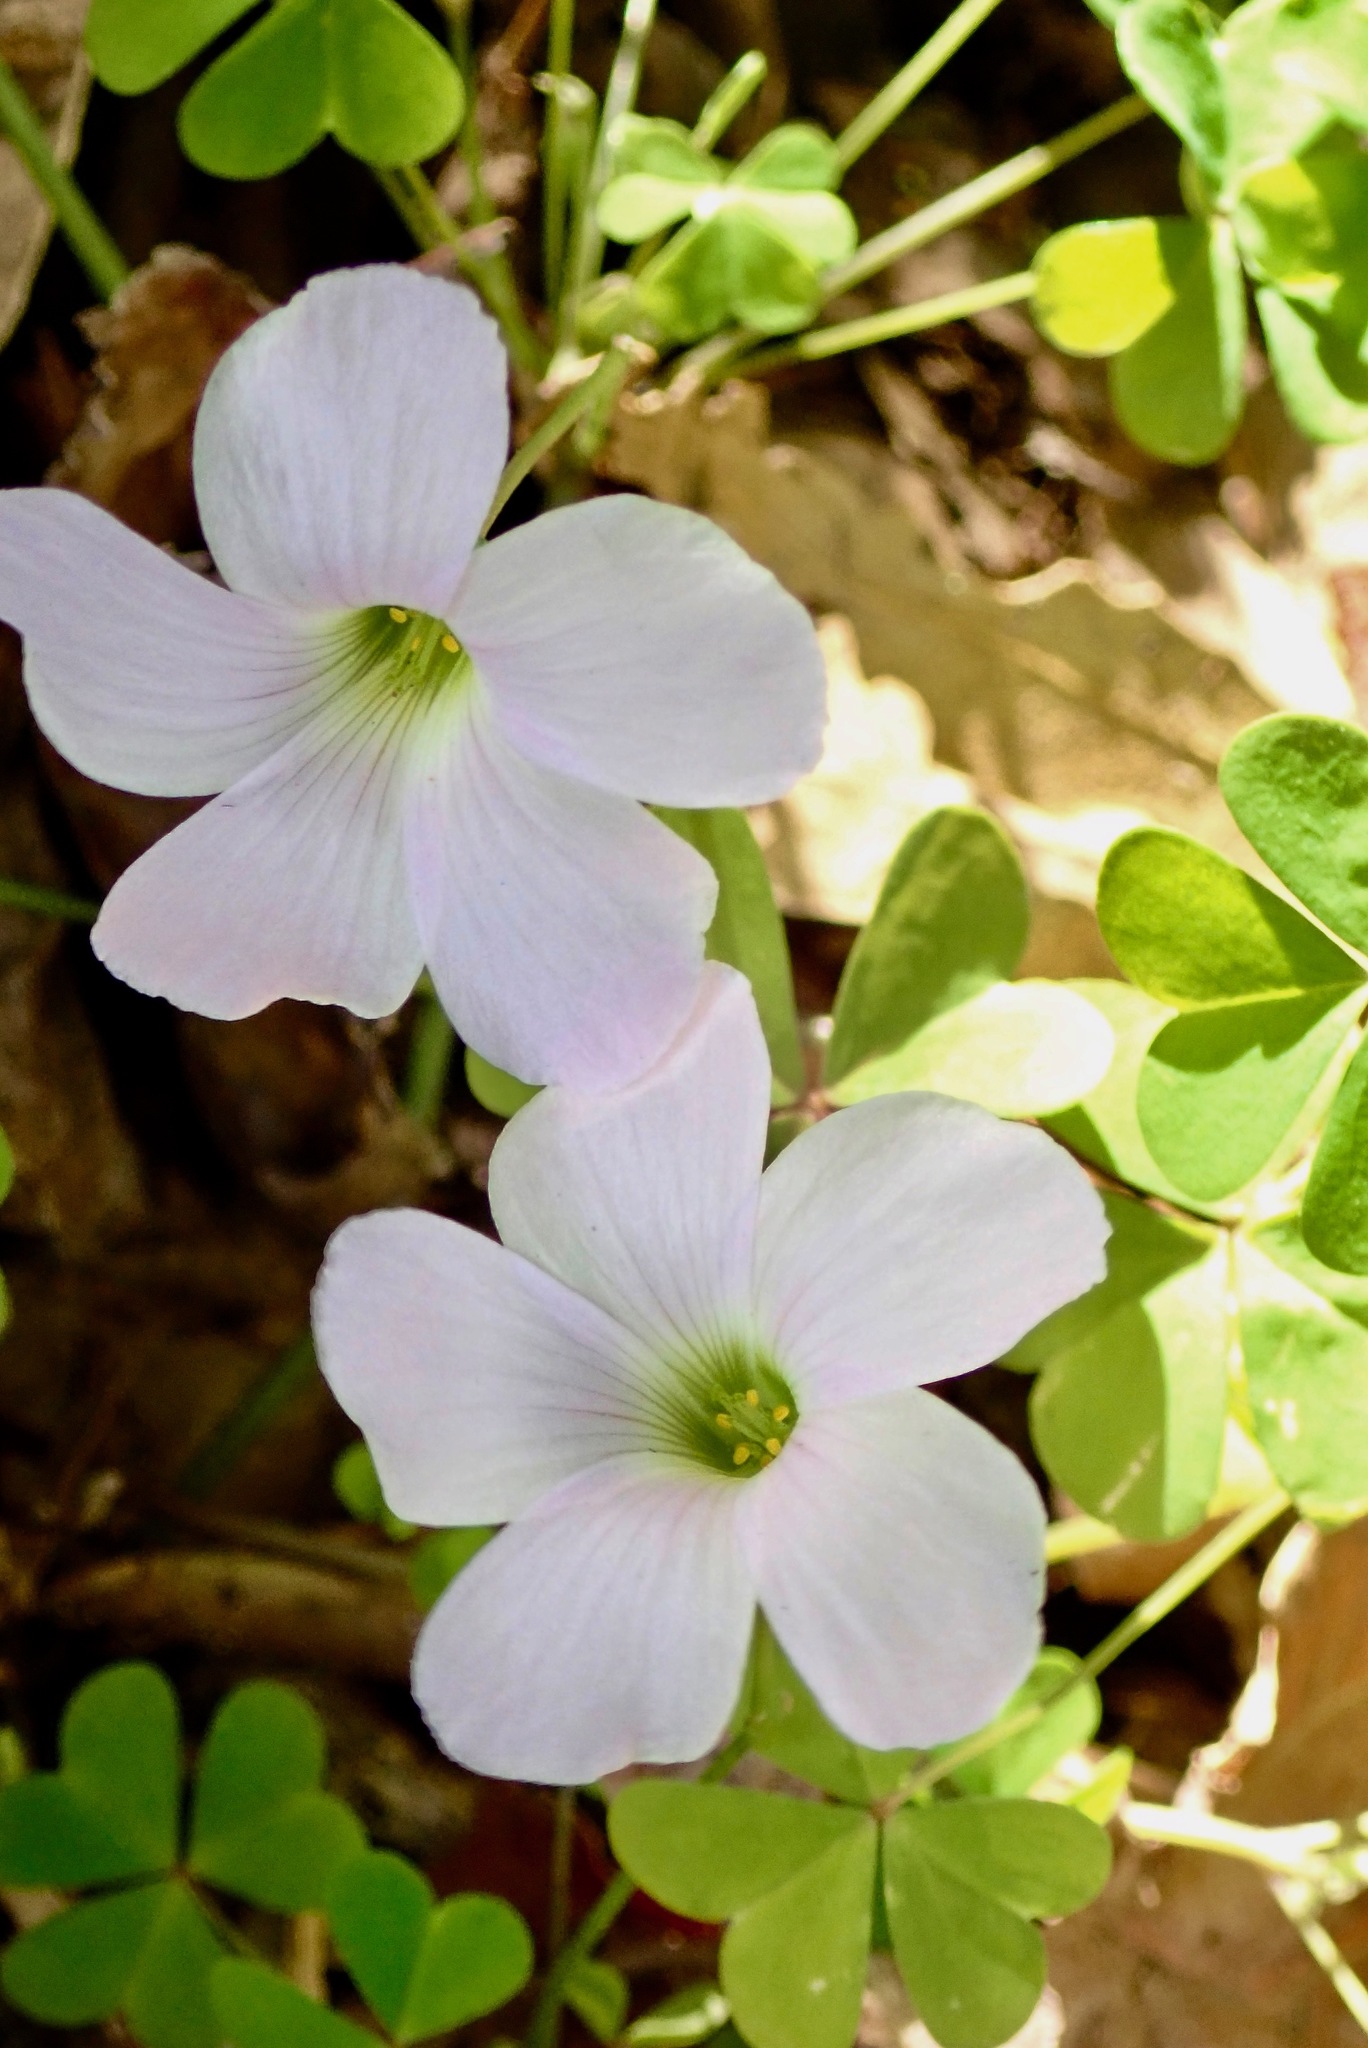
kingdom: Plantae
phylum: Tracheophyta
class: Magnoliopsida
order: Oxalidales
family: Oxalidaceae
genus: Oxalis
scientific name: Oxalis incarnata
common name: Pale pink-sorrel
